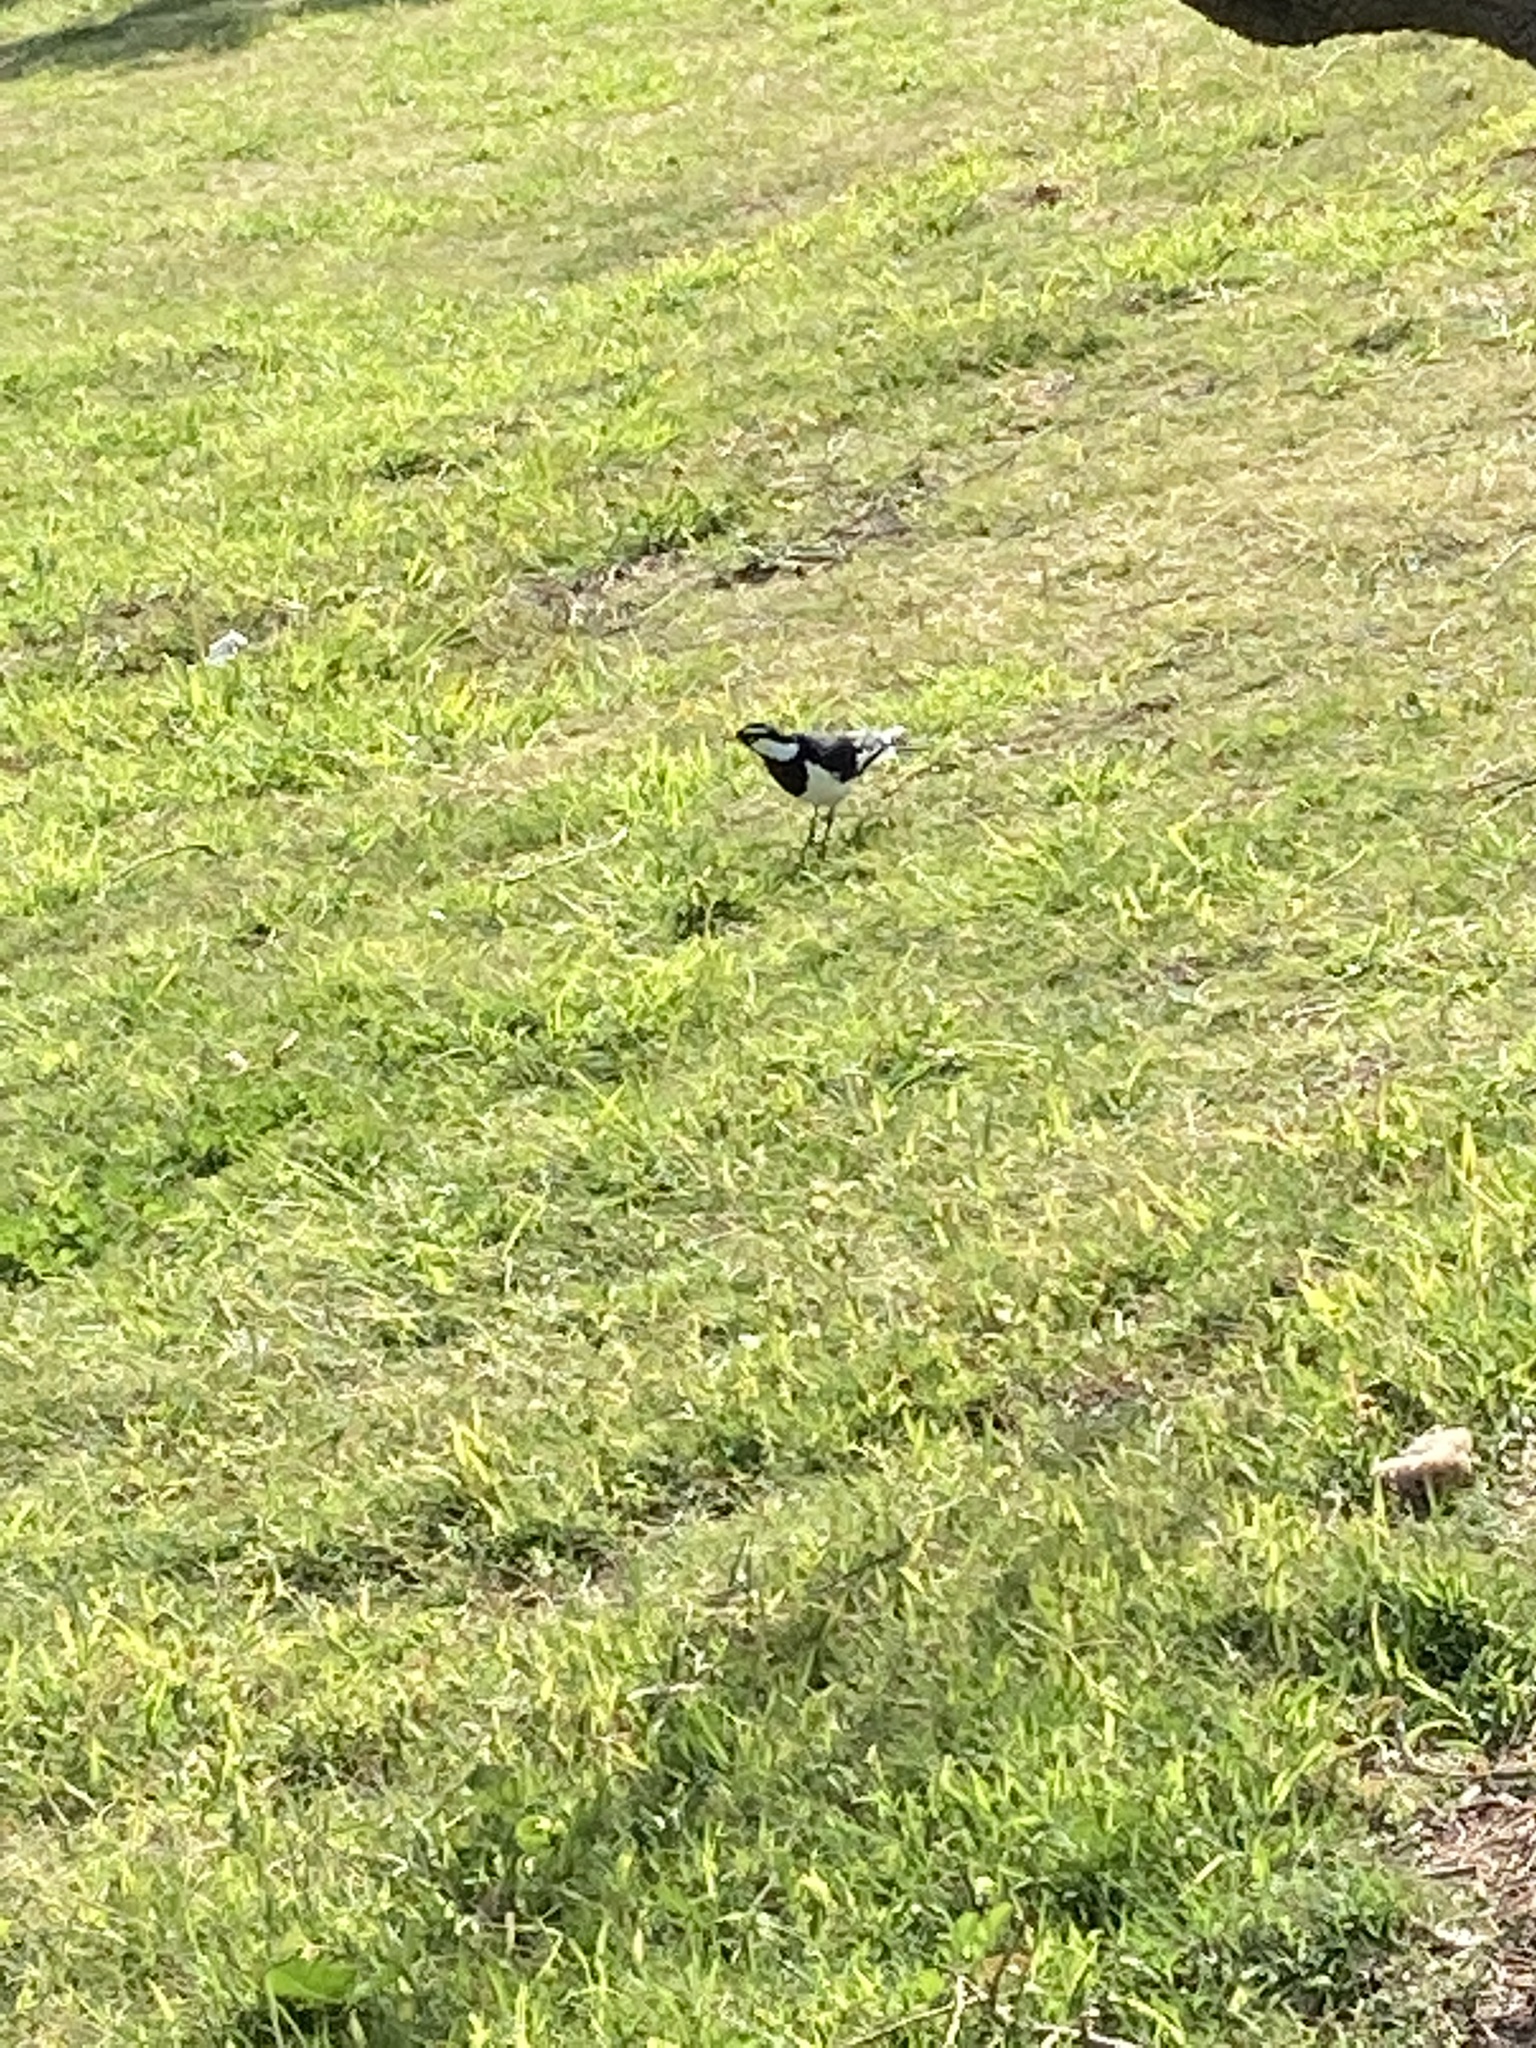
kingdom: Animalia
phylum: Chordata
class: Aves
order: Passeriformes
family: Monarchidae
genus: Grallina
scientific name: Grallina cyanoleuca
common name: Magpie-lark
